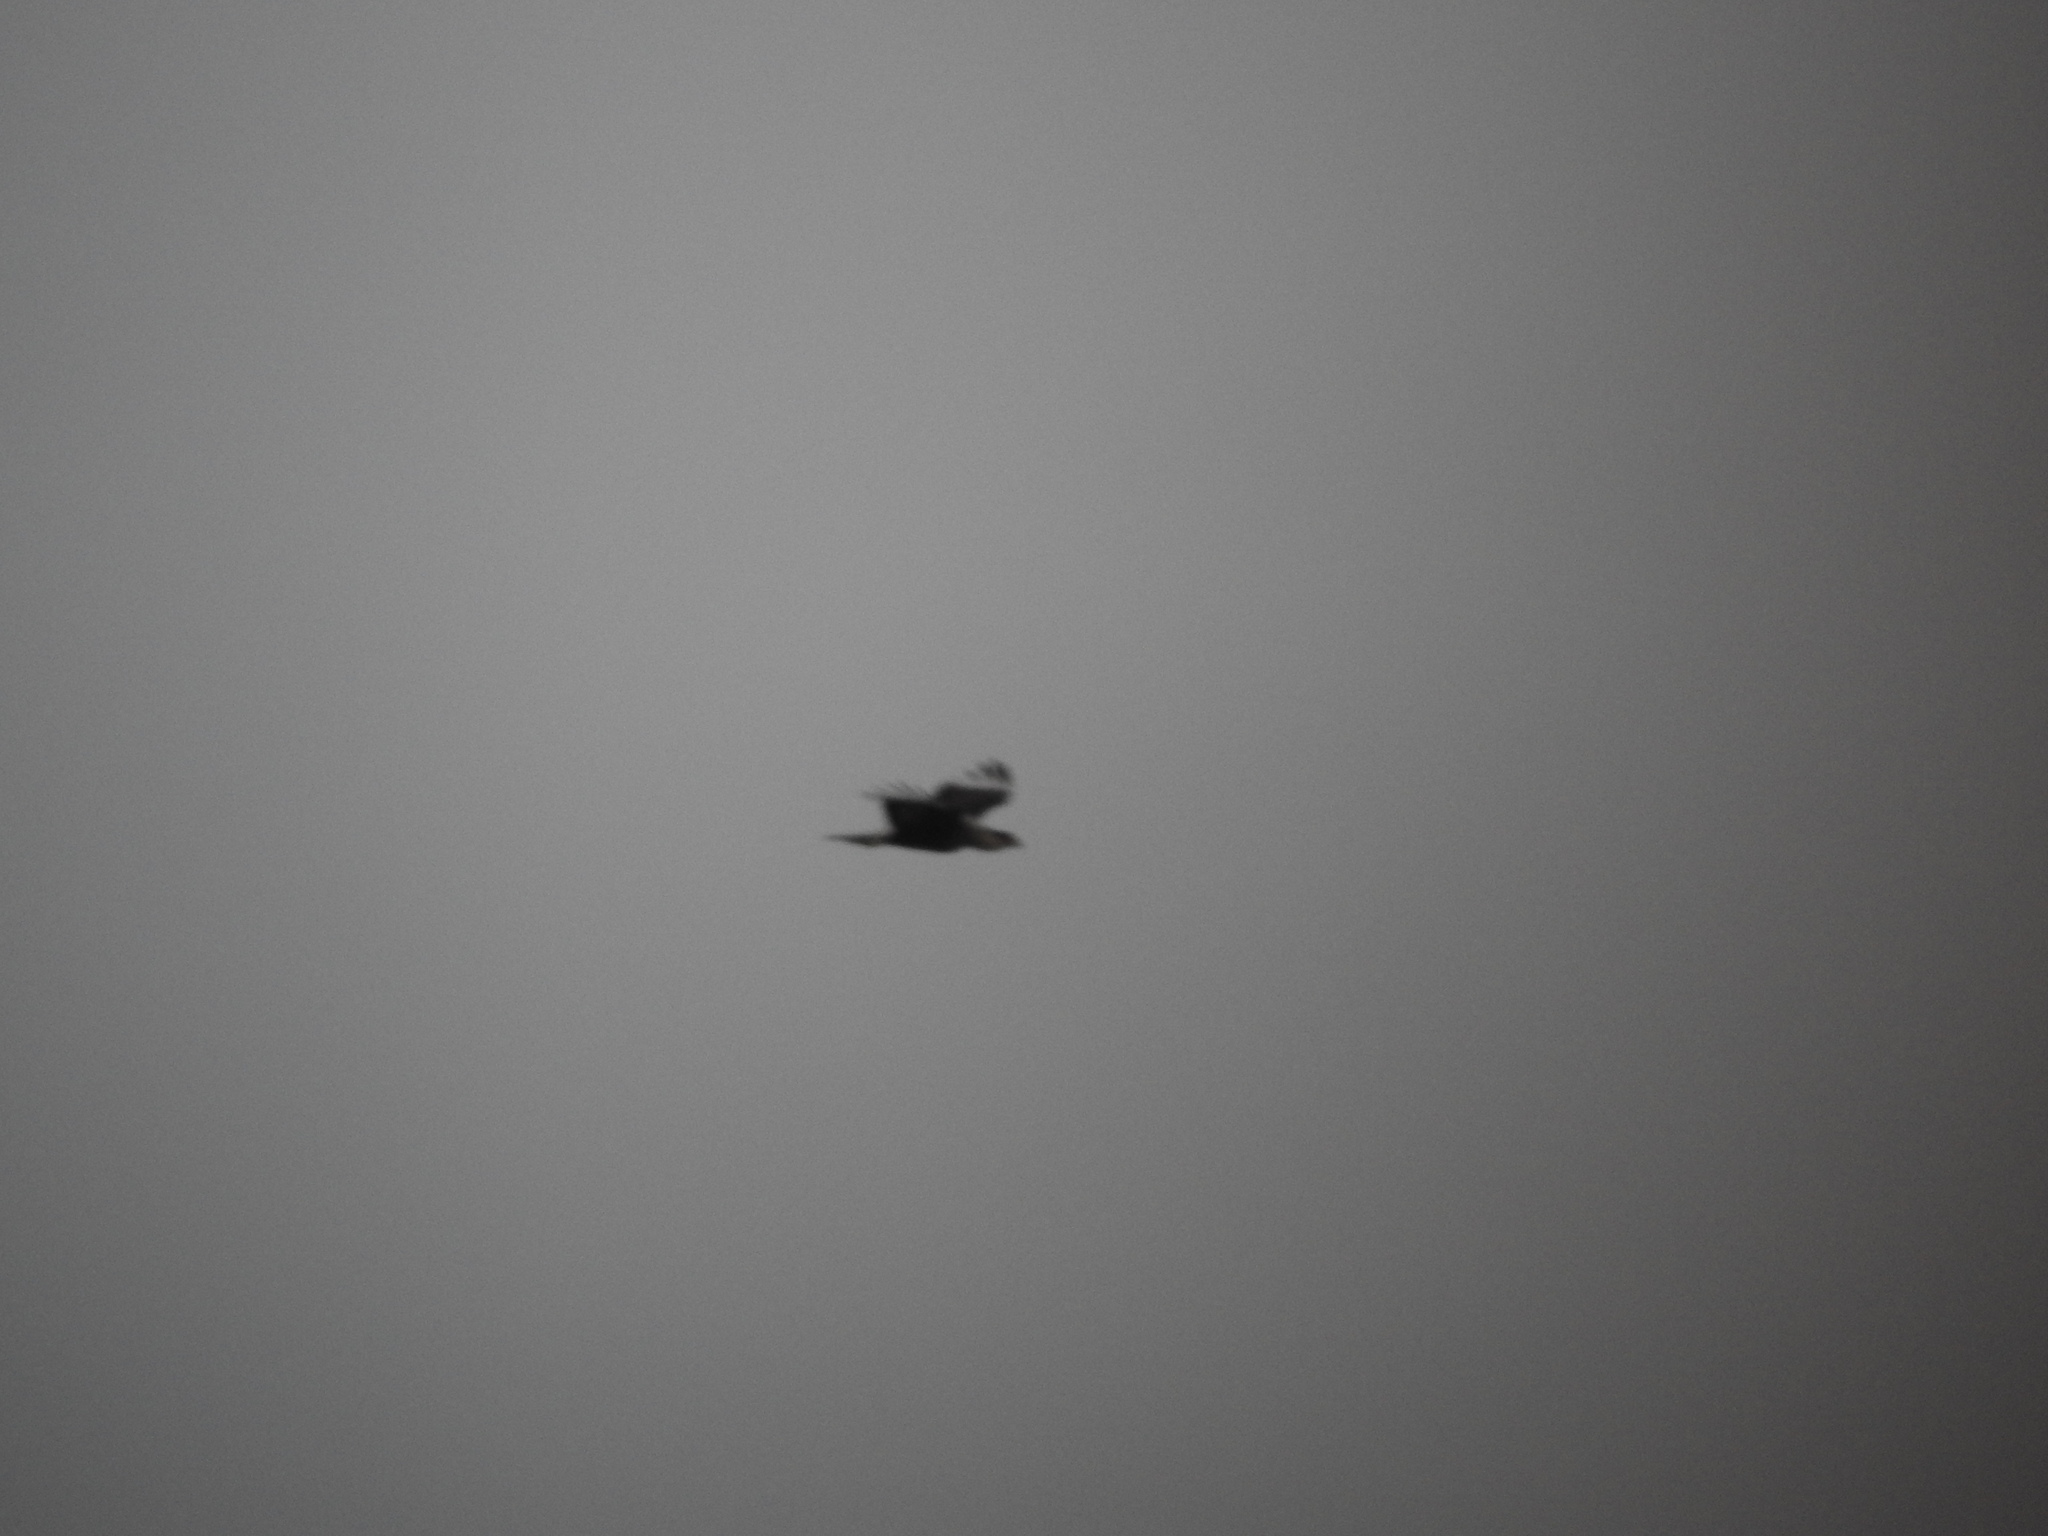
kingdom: Animalia
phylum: Chordata
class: Aves
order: Falconiformes
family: Falconidae
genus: Caracara
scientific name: Caracara plancus
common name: Southern caracara
